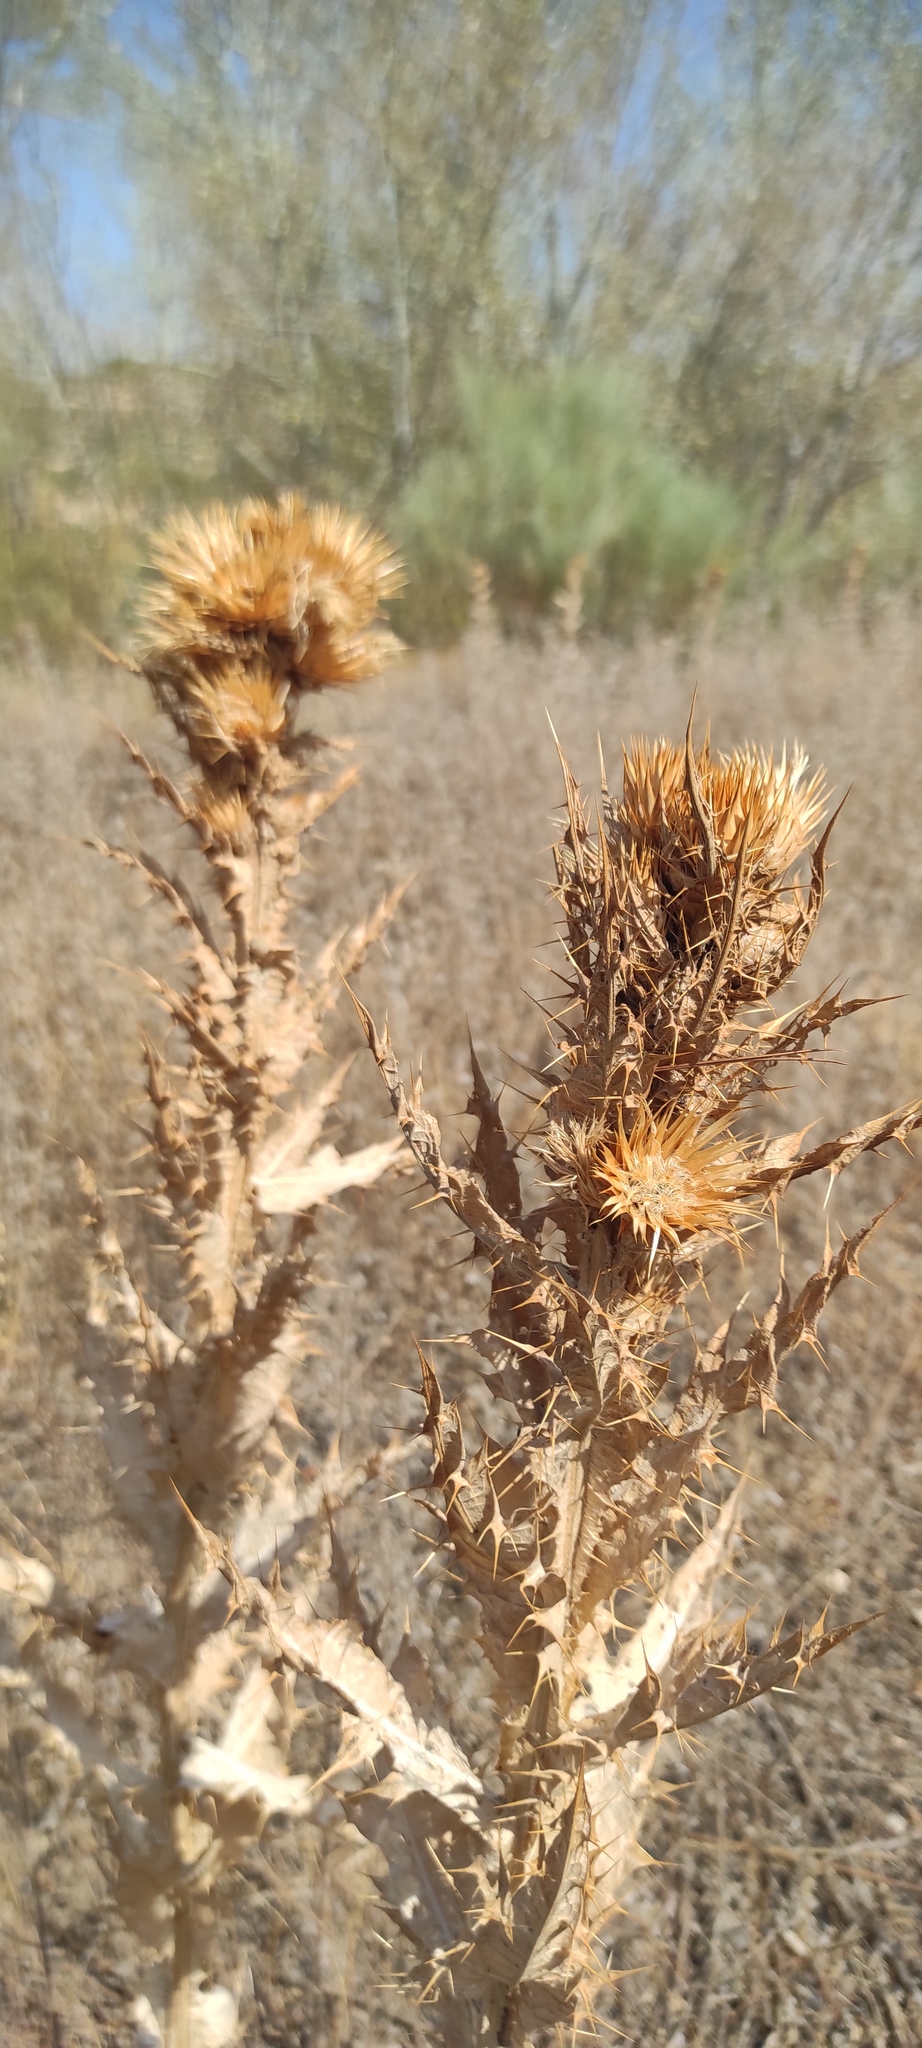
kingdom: Plantae
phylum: Tracheophyta
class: Magnoliopsida
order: Asterales
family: Asteraceae
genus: Onopordum
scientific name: Onopordum nervosum
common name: Reticulate thistle
